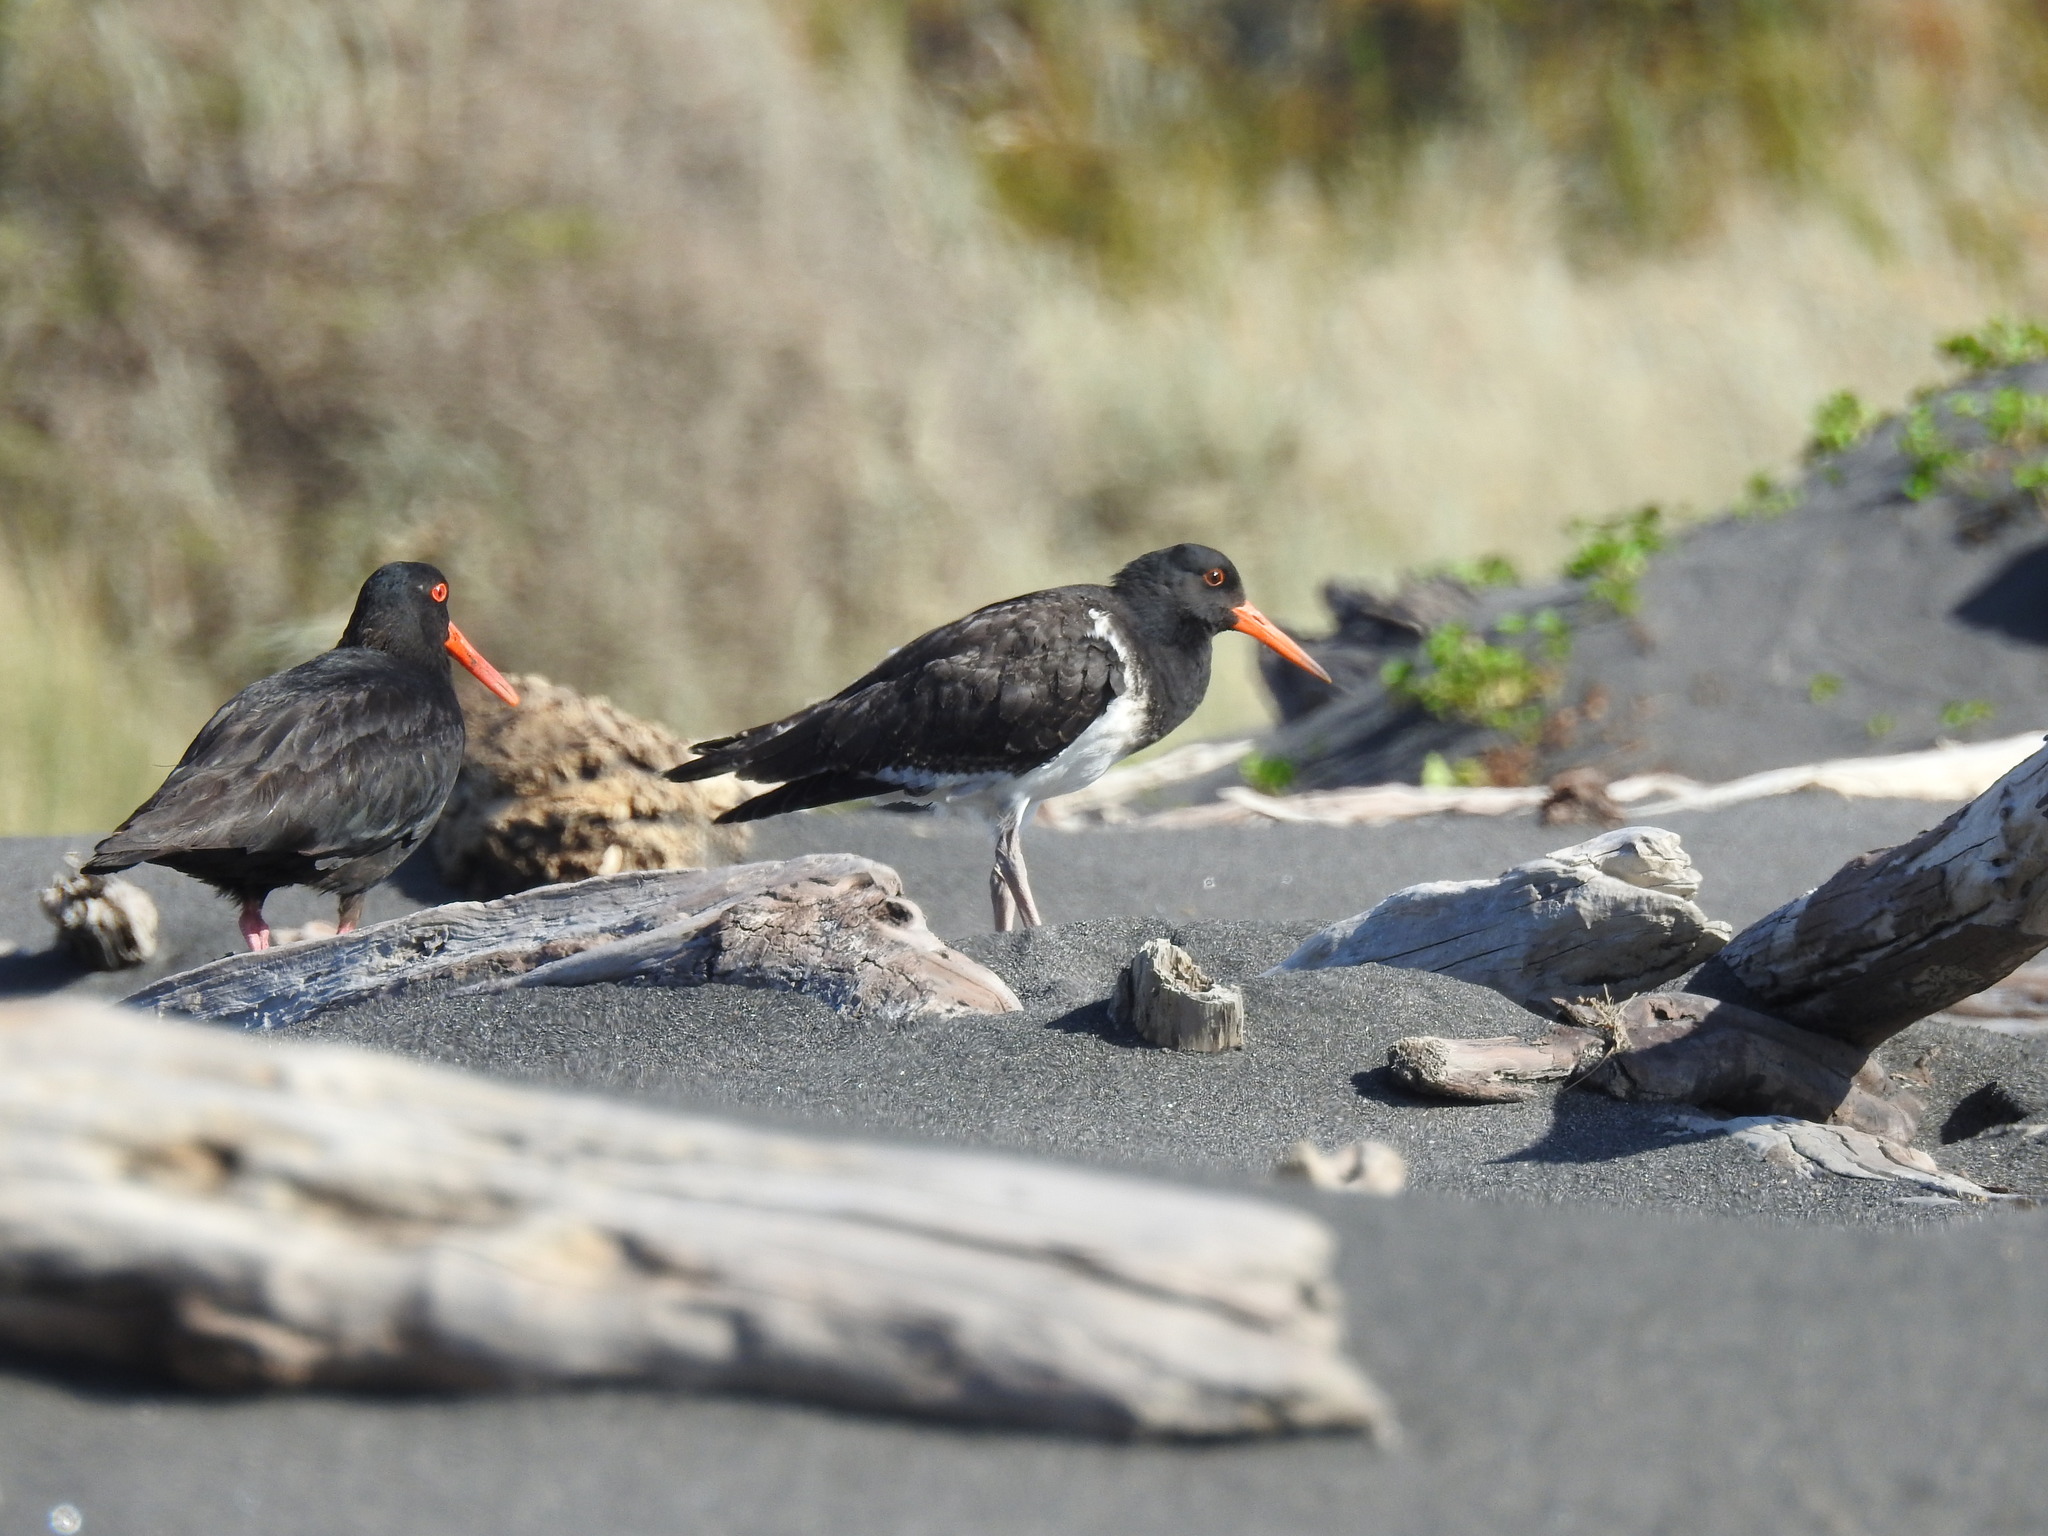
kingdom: Animalia
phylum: Chordata
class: Aves
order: Charadriiformes
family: Haematopodidae
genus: Haematopus
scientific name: Haematopus finschi
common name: South island oystercatcher
